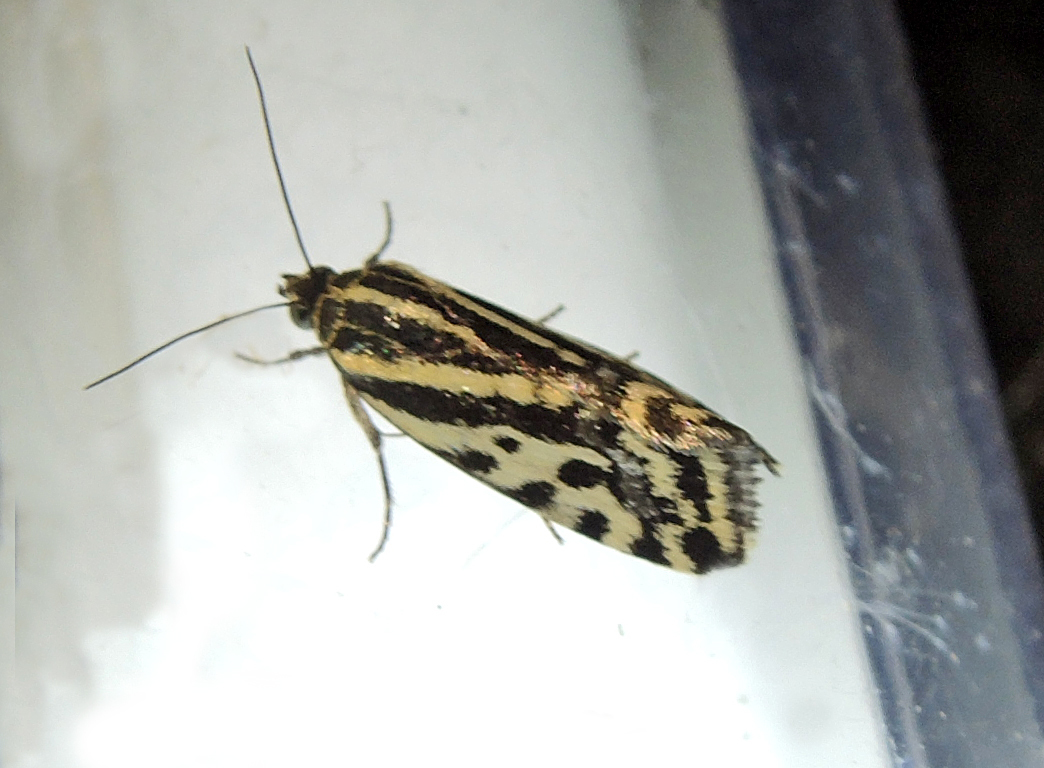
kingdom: Animalia
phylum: Arthropoda
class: Insecta
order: Lepidoptera
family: Noctuidae
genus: Acontia
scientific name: Acontia trabealis
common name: Spotted sulphur
